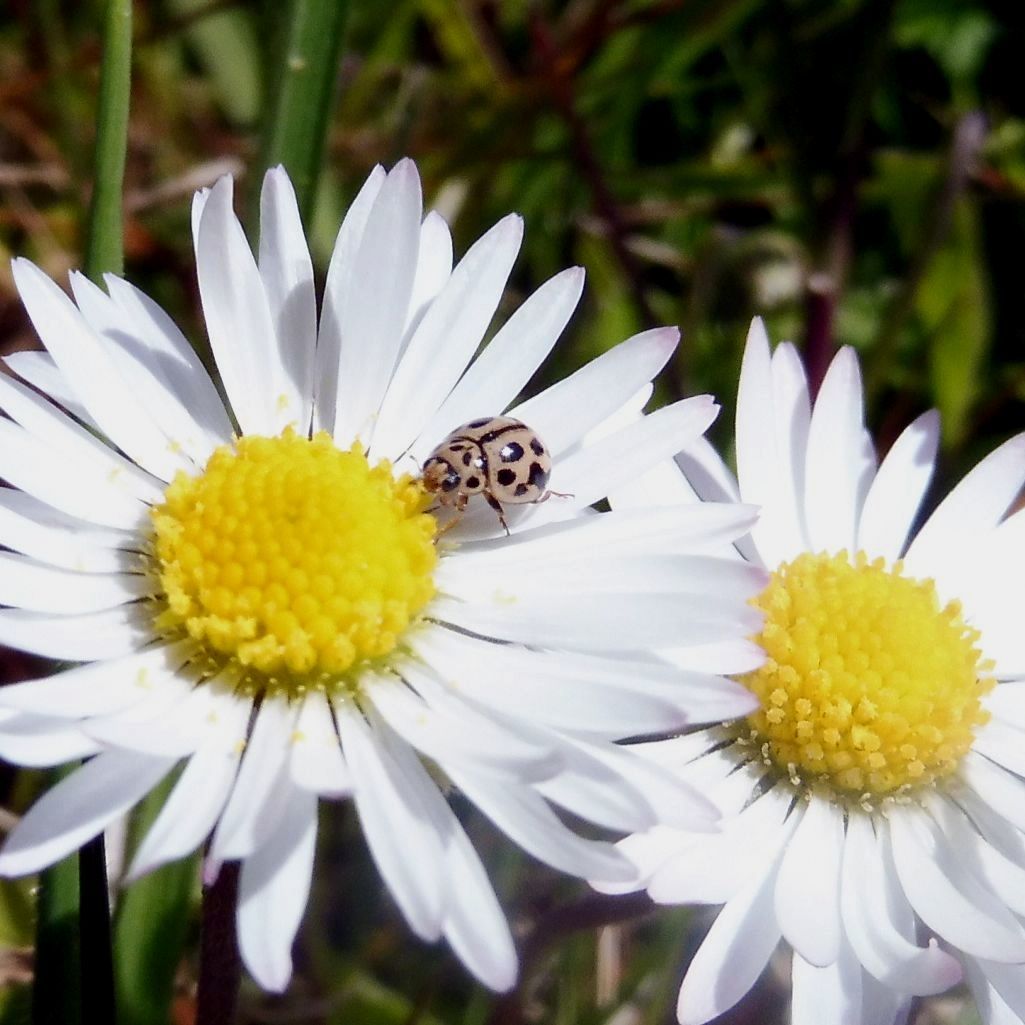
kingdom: Animalia
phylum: Arthropoda
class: Insecta
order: Coleoptera
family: Coccinellidae
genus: Tytthaspis
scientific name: Tytthaspis sedecimpunctata
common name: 16-spot ladybird
